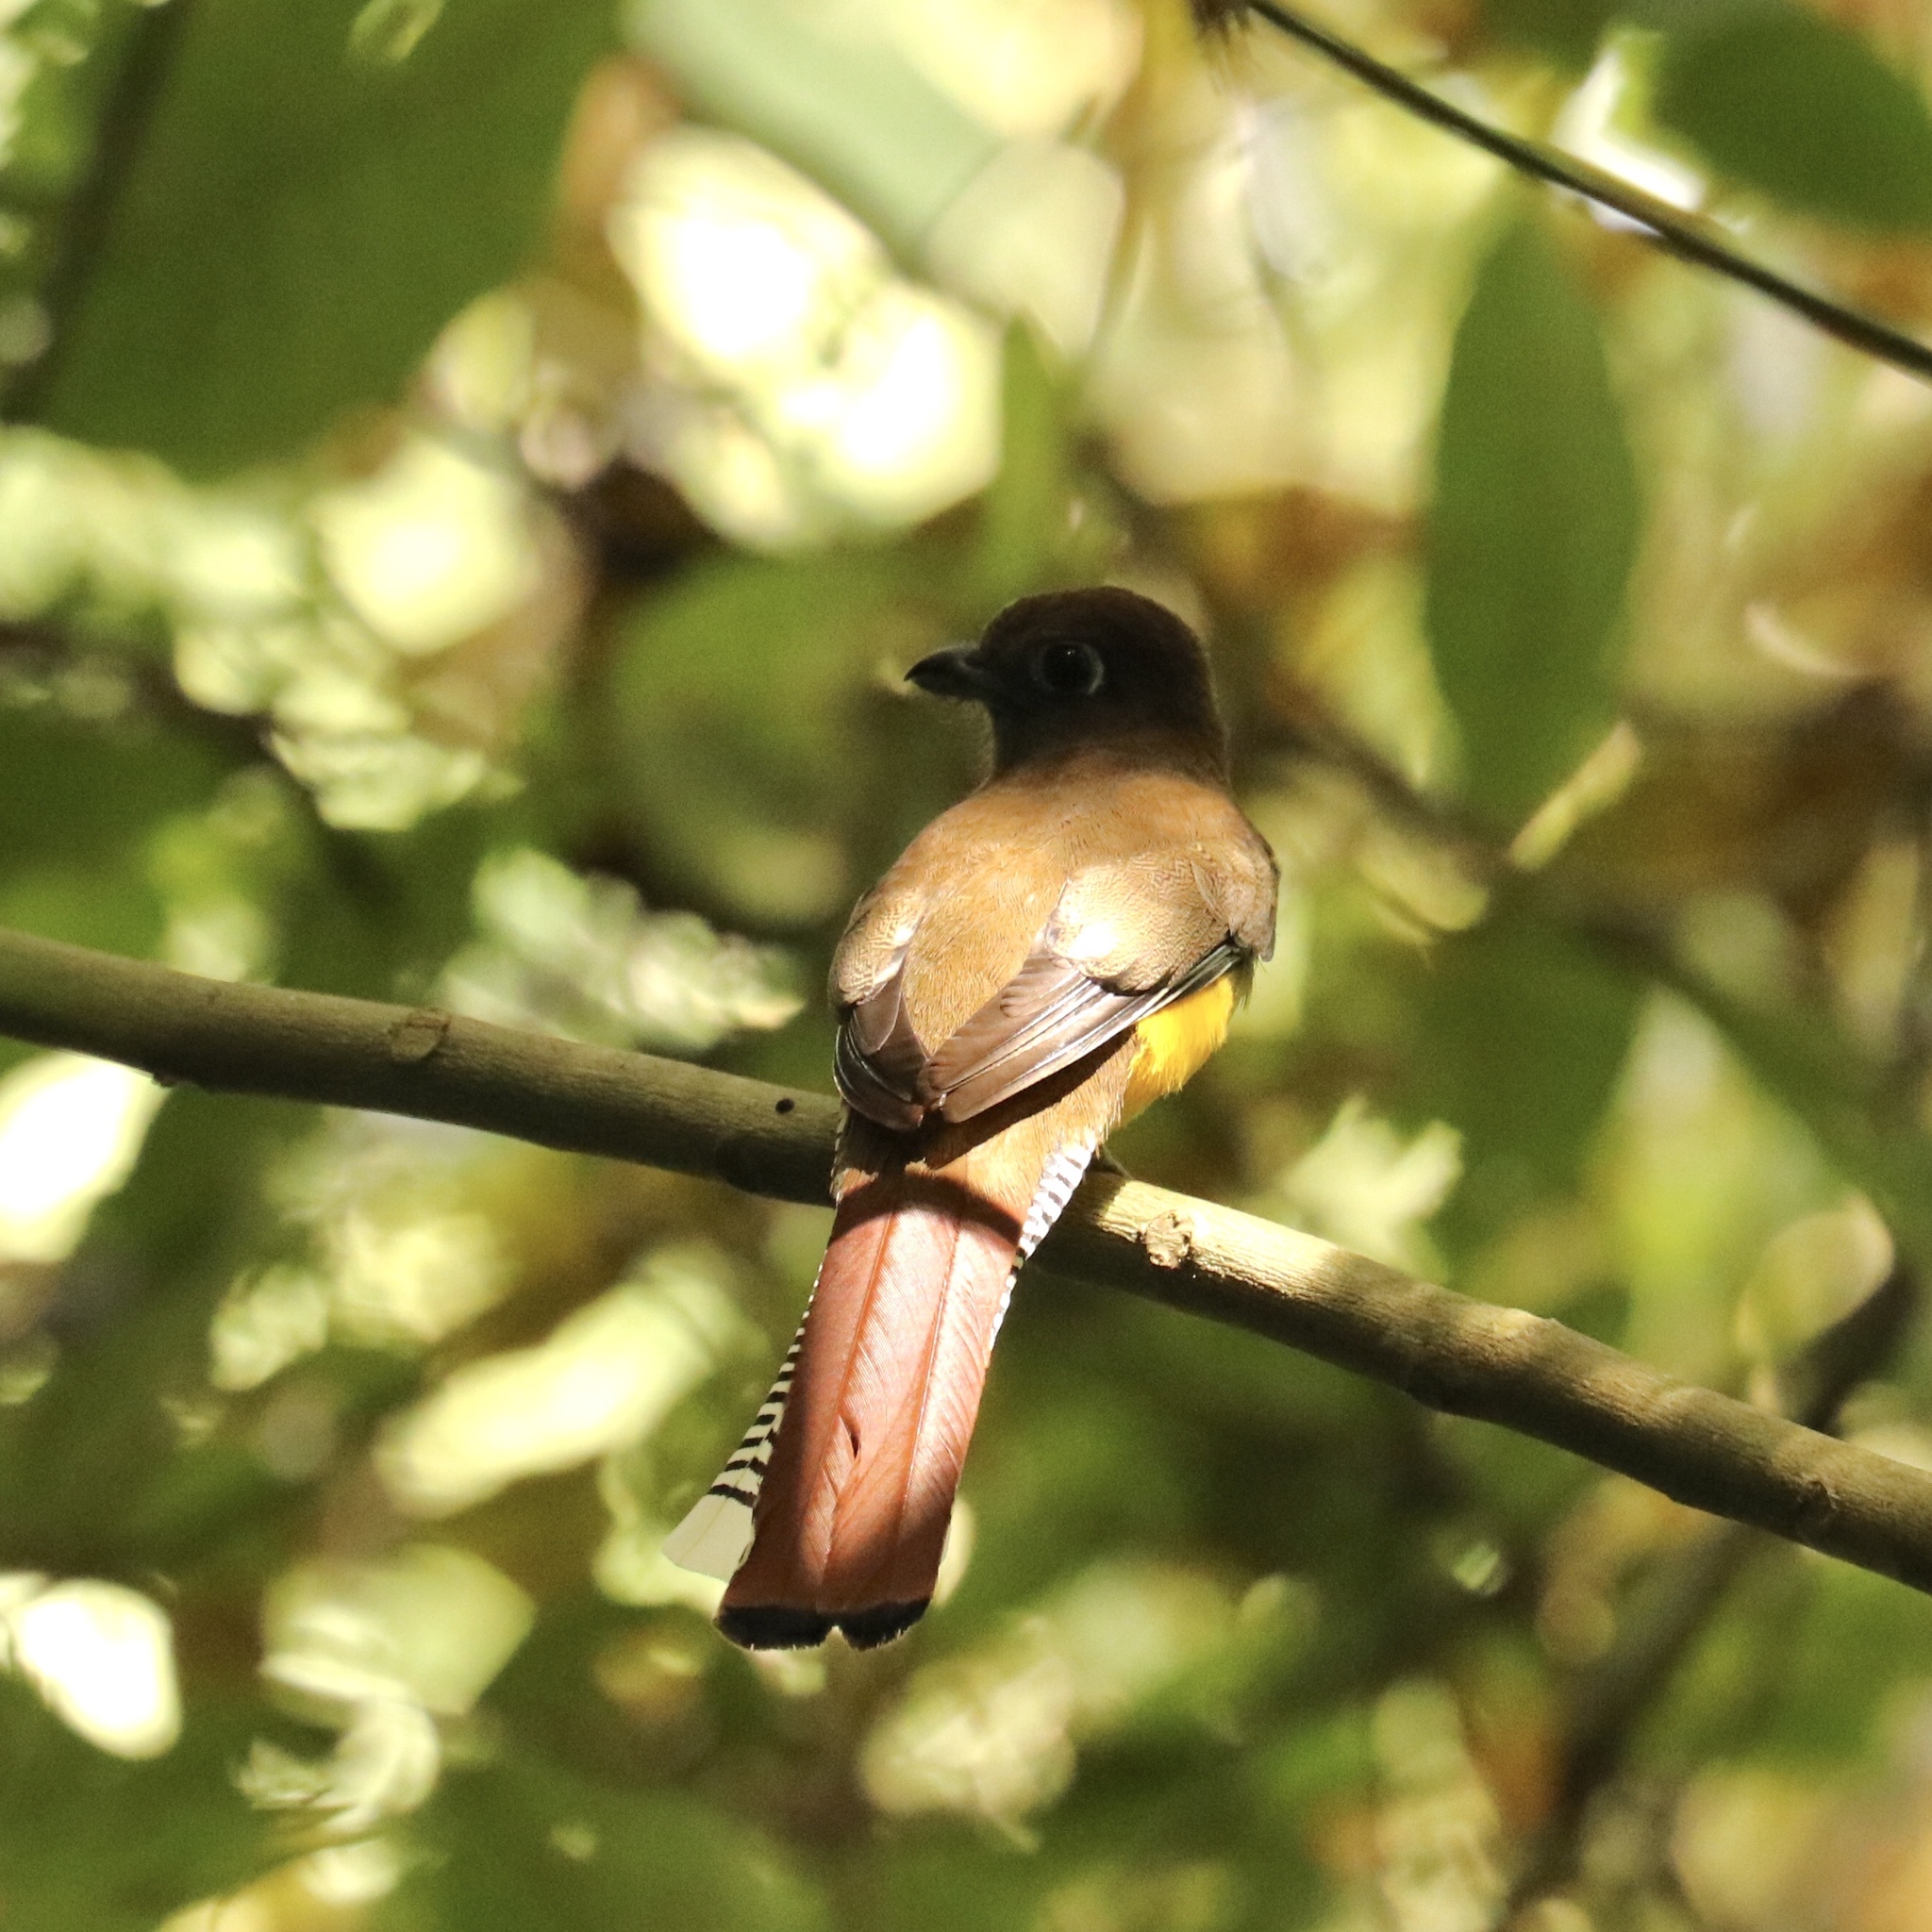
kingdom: Animalia
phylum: Chordata
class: Aves
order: Trogoniformes
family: Trogonidae
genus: Trogon
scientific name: Trogon rufus
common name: Black-throated trogon
